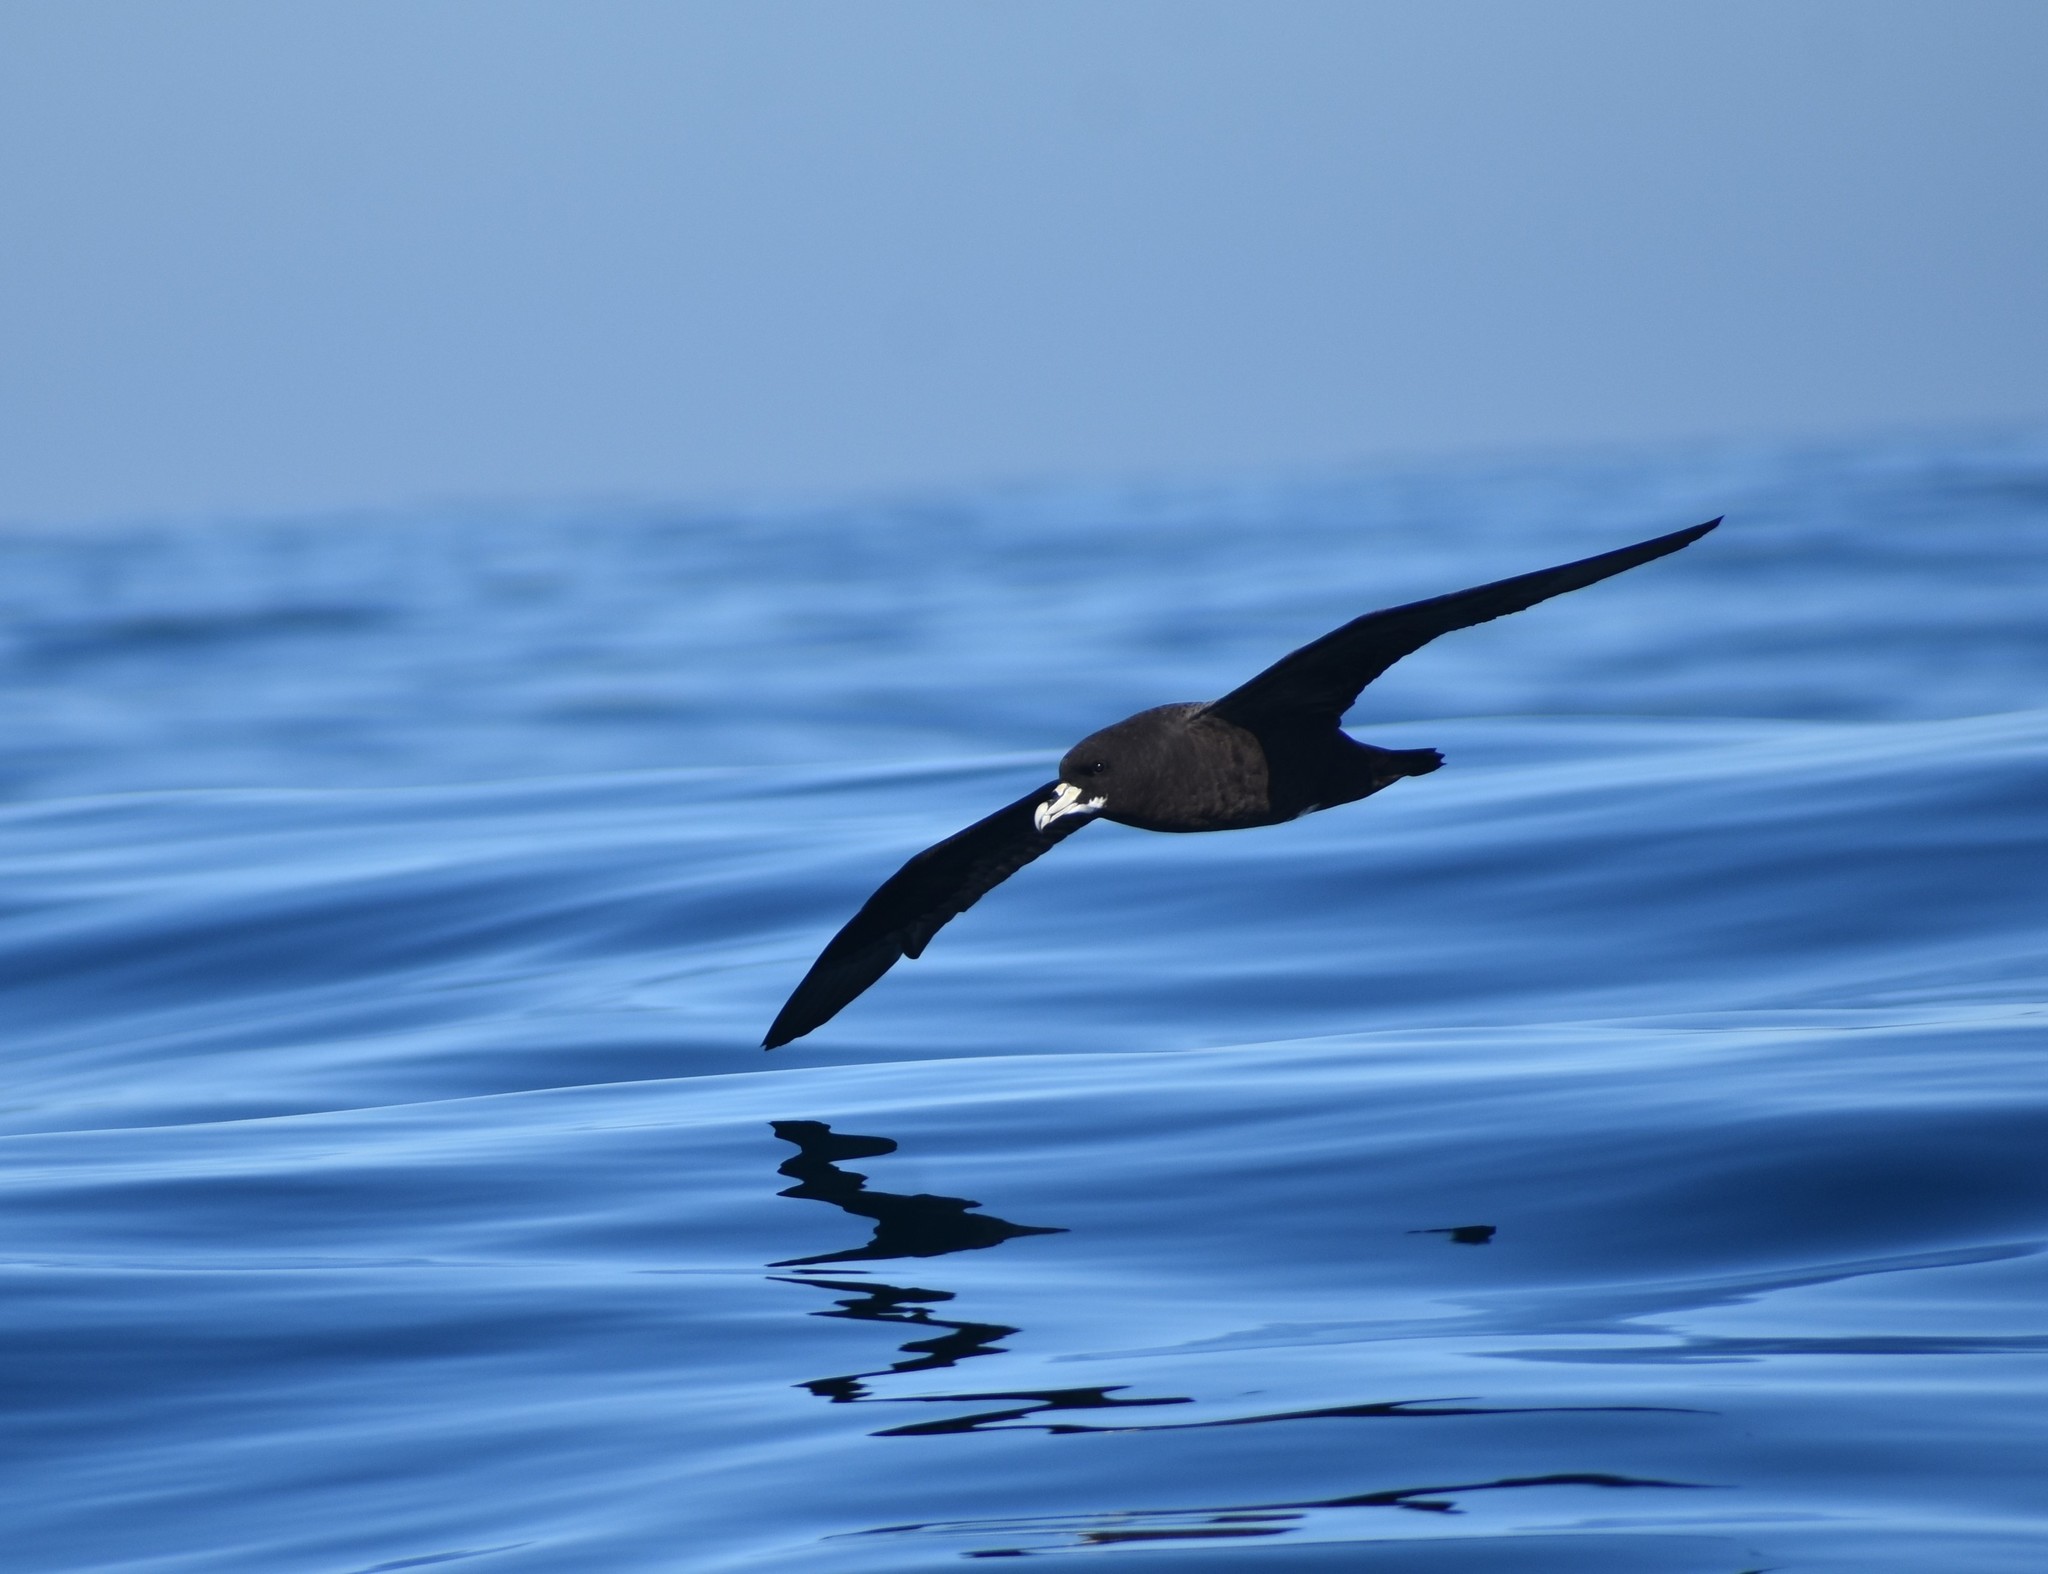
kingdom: Animalia
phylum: Chordata
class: Aves
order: Procellariiformes
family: Procellariidae
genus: Procellaria
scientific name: Procellaria aequinoctialis
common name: White-chinned petrel
